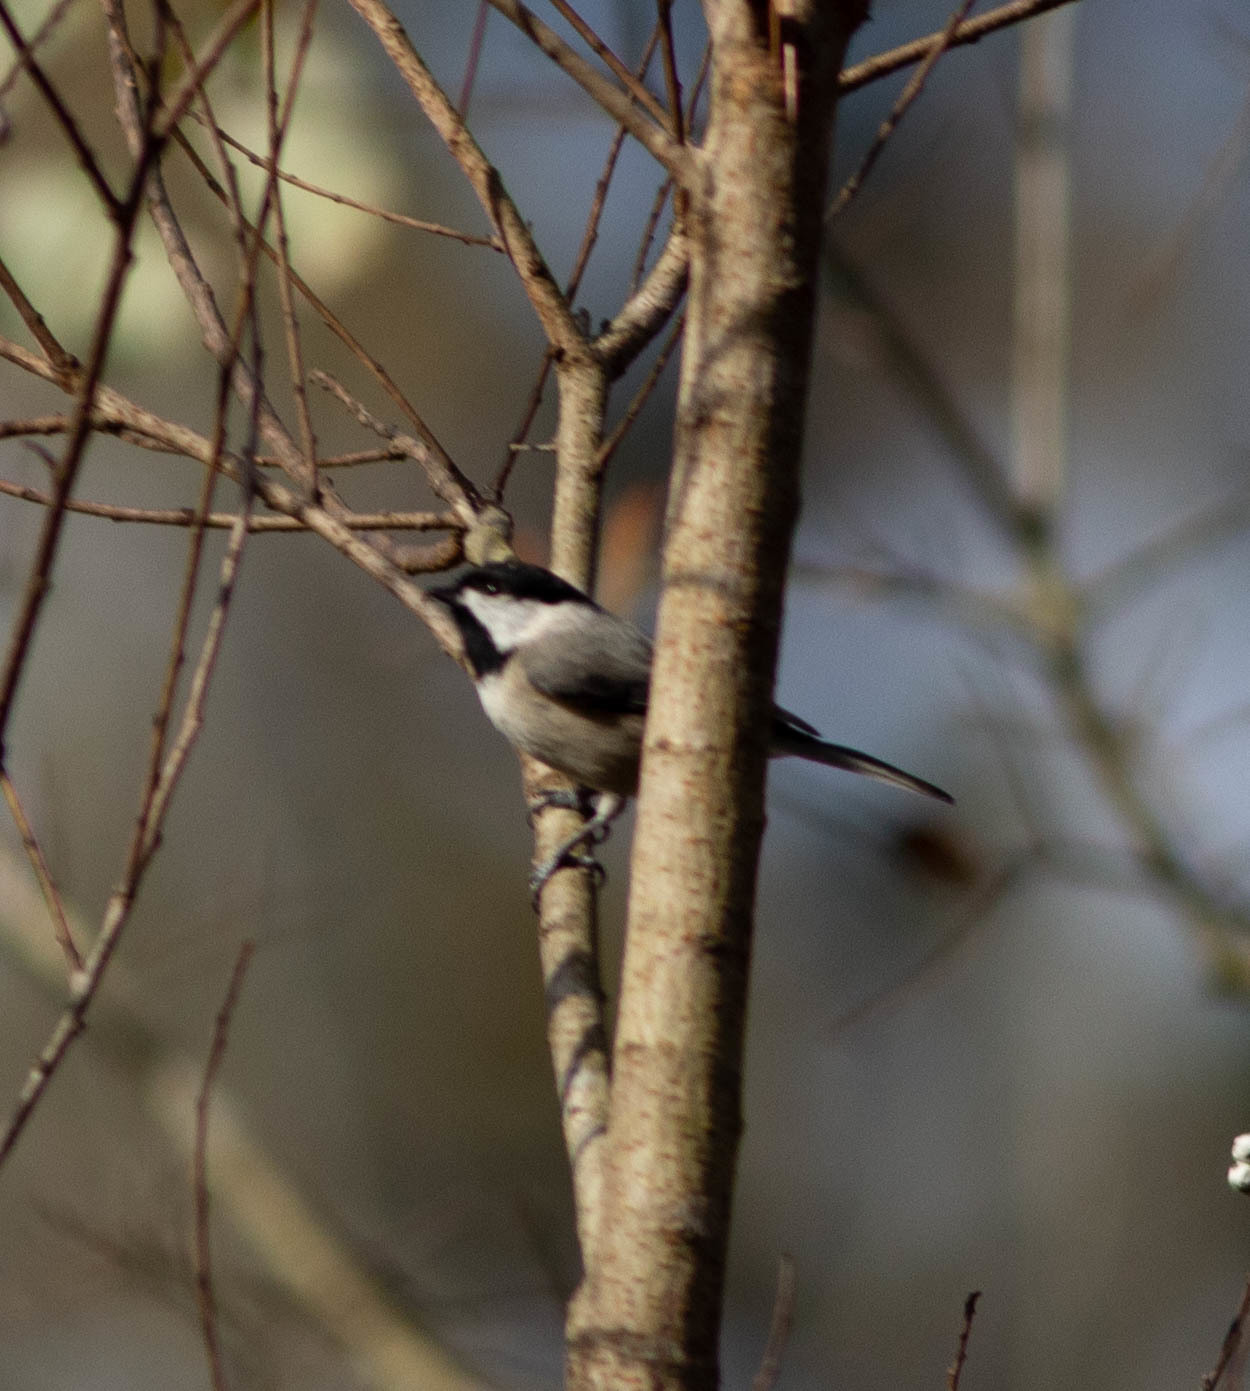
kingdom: Animalia
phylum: Chordata
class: Aves
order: Passeriformes
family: Paridae
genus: Poecile
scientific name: Poecile carolinensis
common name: Carolina chickadee
